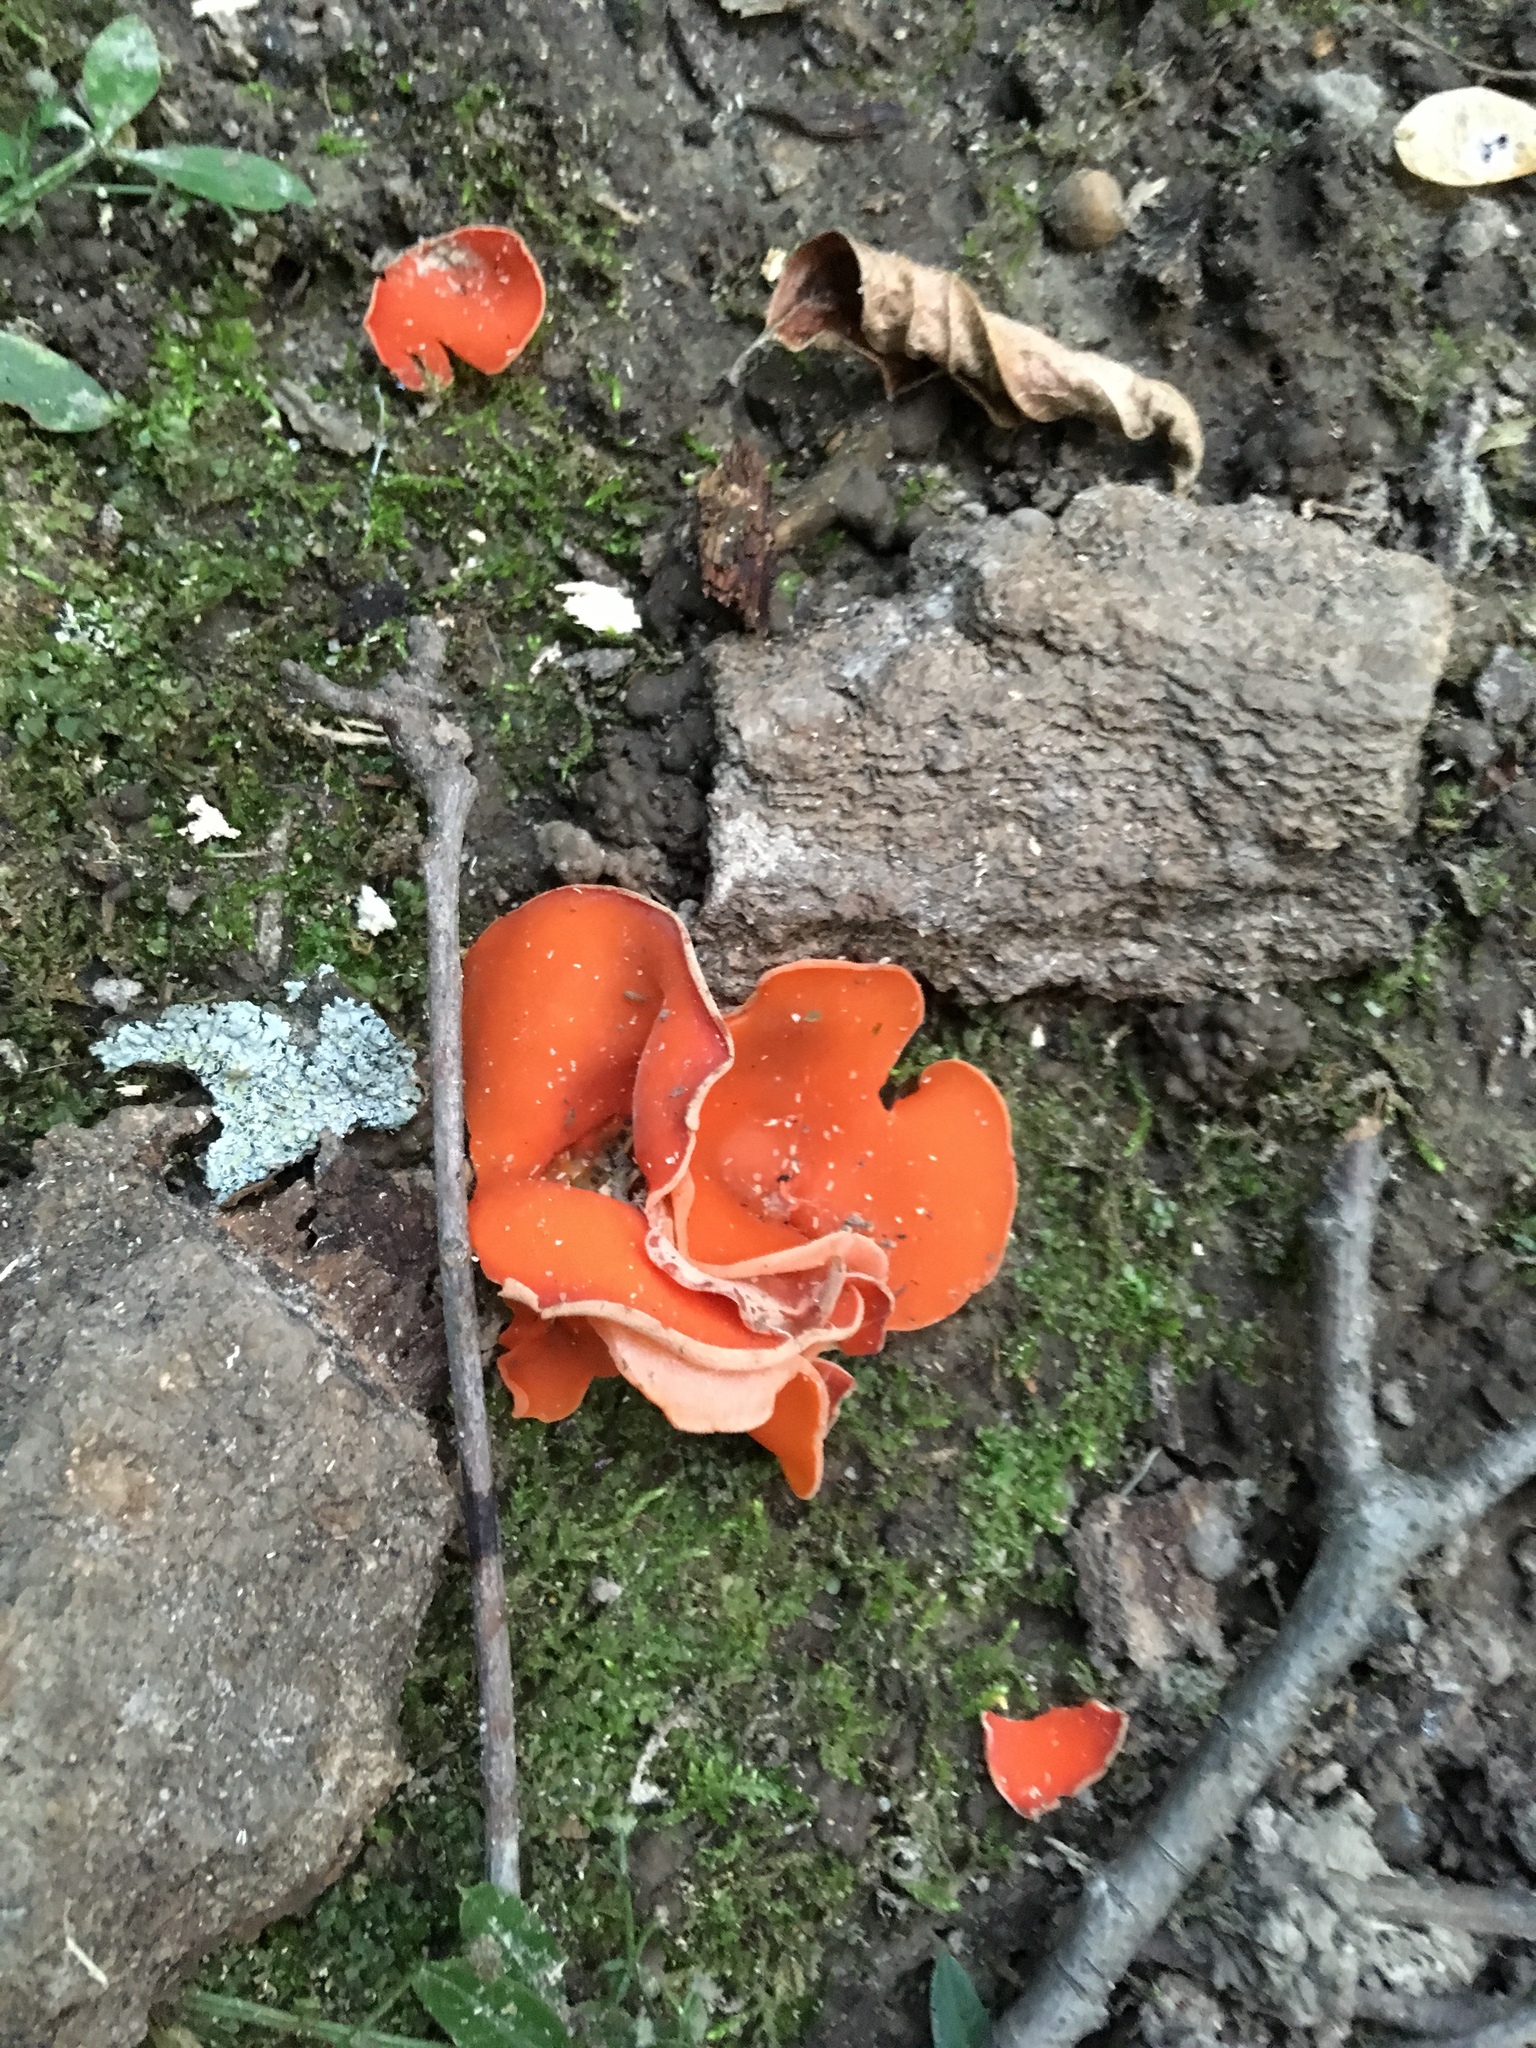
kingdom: Fungi
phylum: Ascomycota
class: Pezizomycetes
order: Pezizales
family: Pyronemataceae
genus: Aleuria
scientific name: Aleuria aurantia
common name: Orange peel fungus
